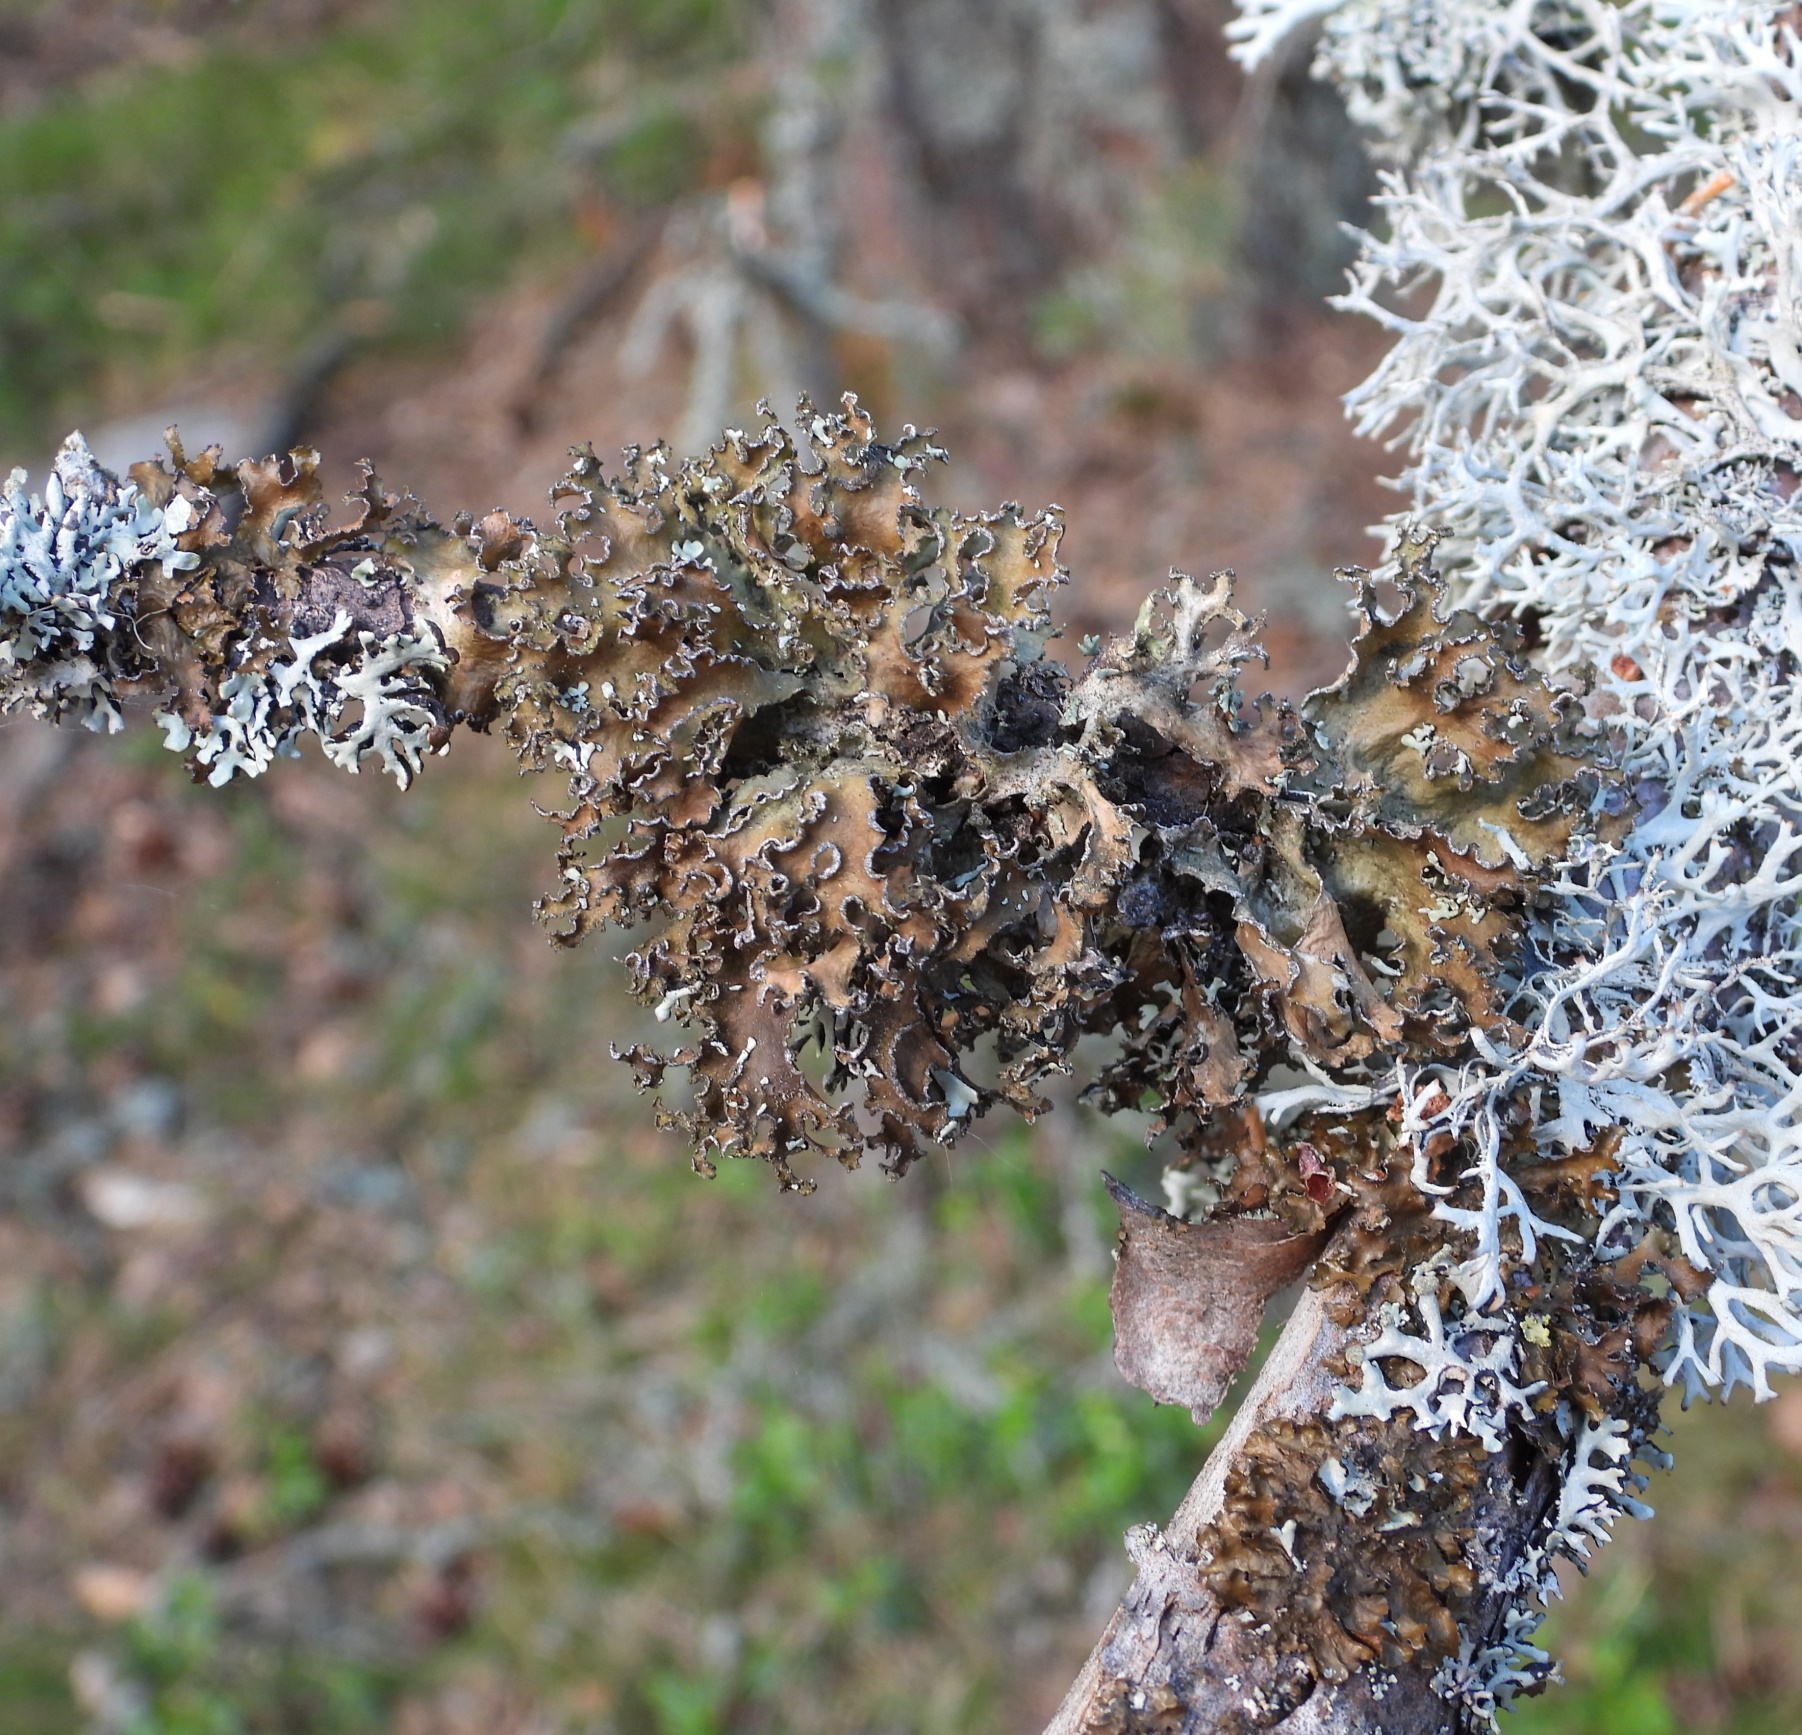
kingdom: Fungi
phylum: Ascomycota
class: Lecanoromycetes
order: Lecanorales
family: Parmeliaceae
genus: Nephromopsis
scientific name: Nephromopsis chlorophylla
